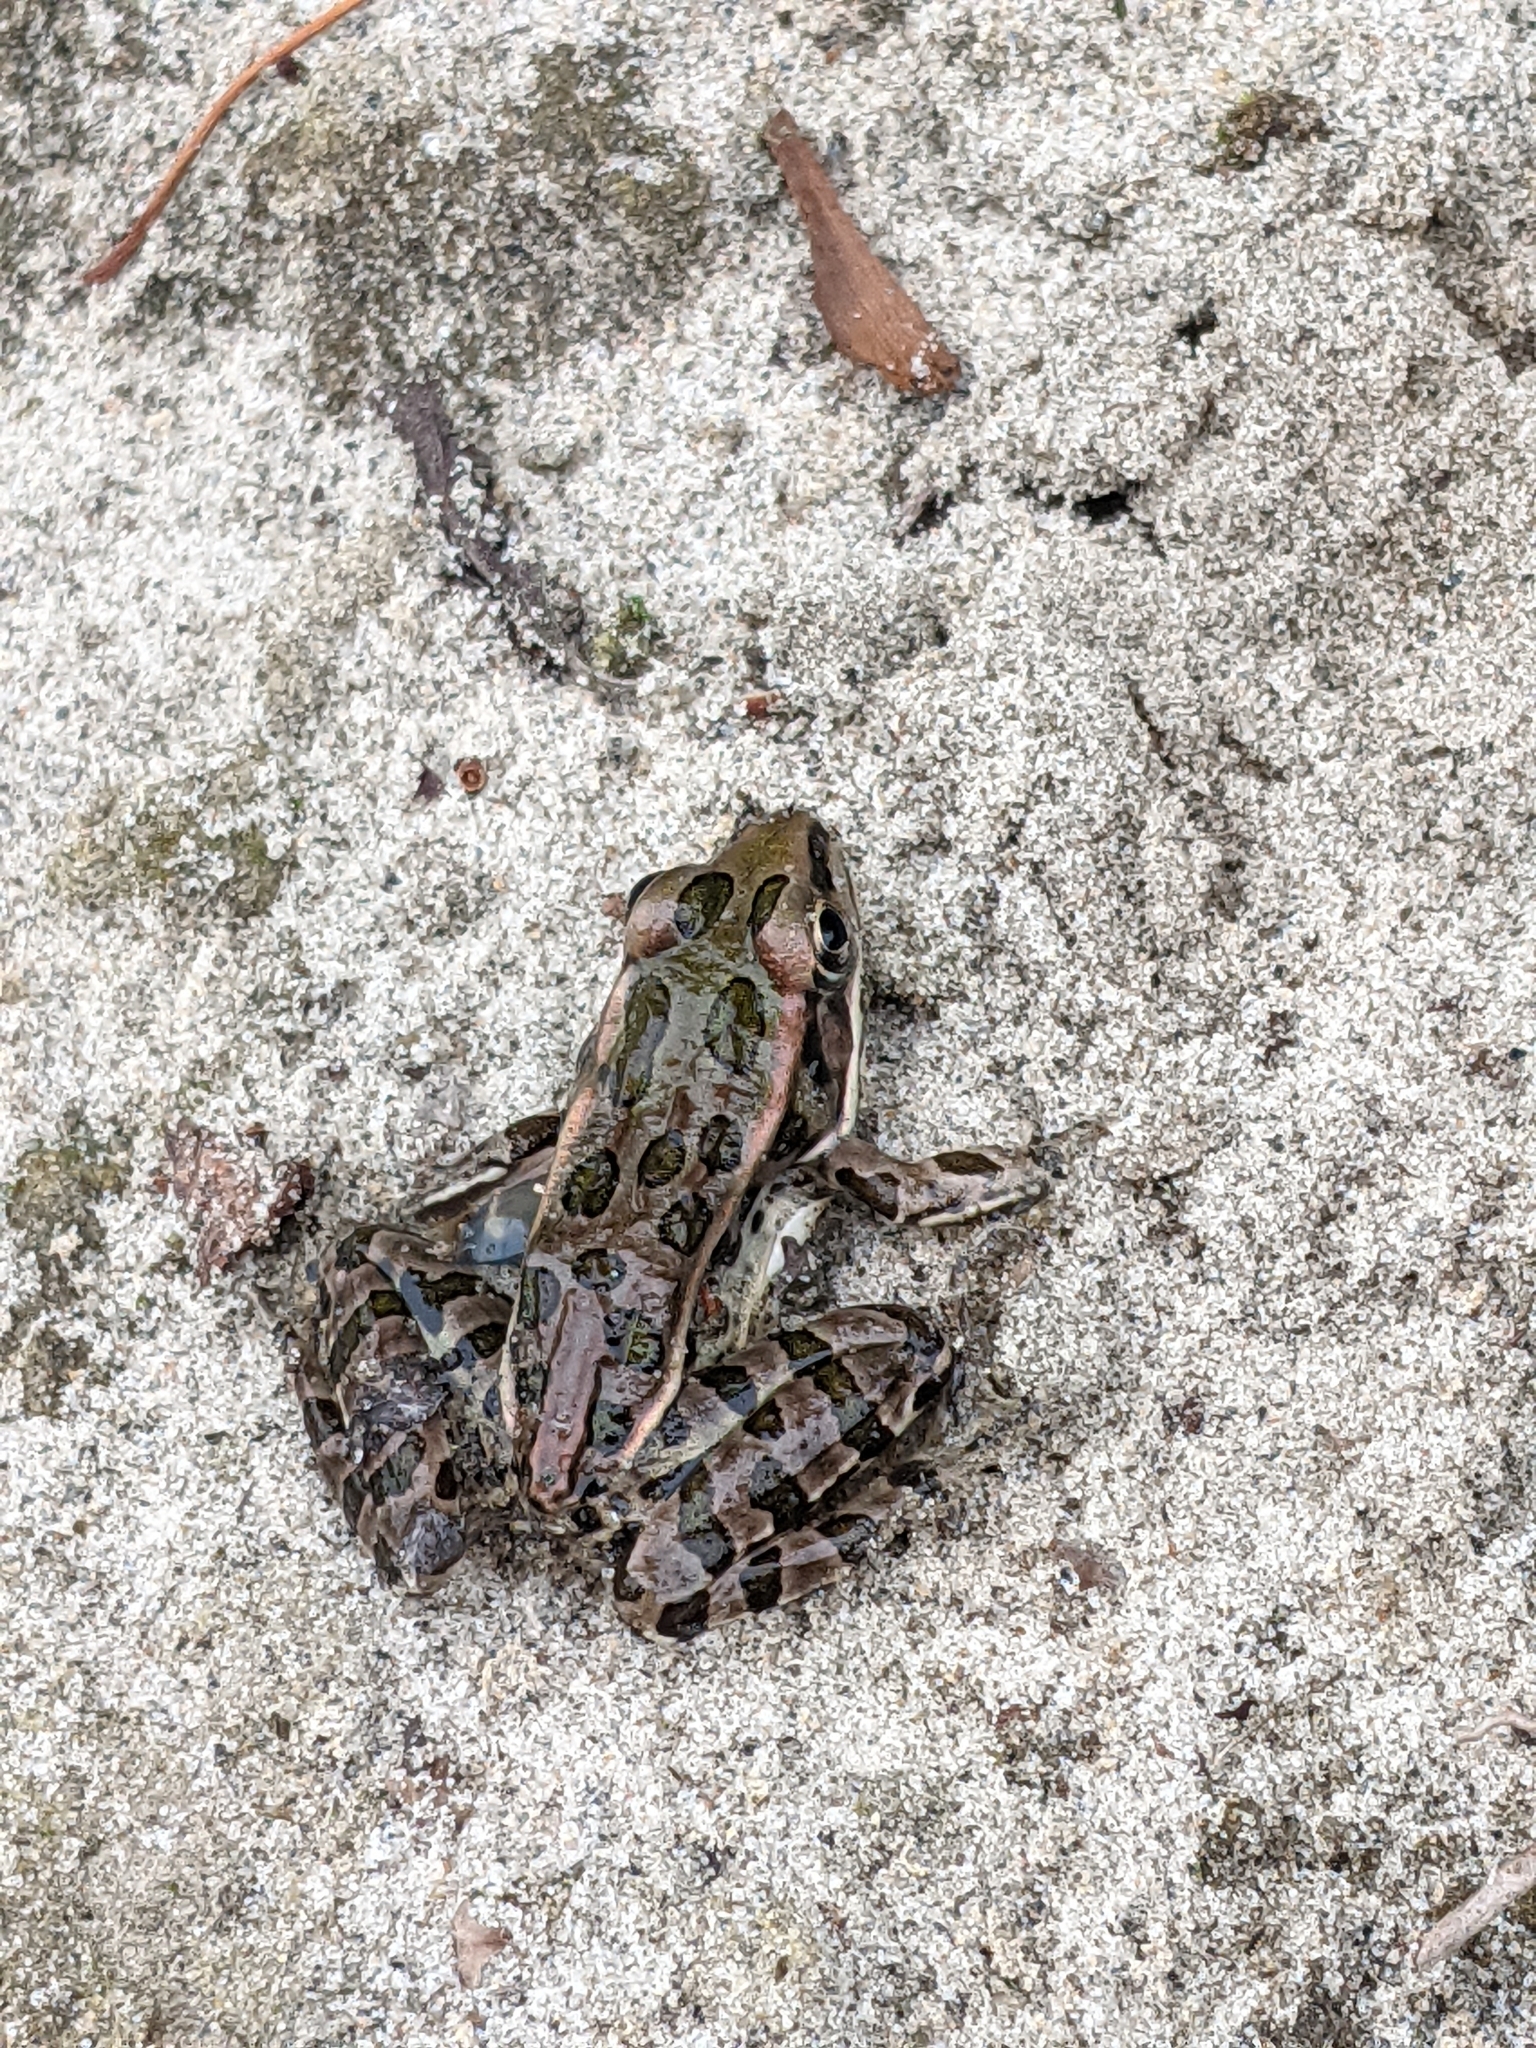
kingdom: Animalia
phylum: Chordata
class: Amphibia
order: Anura
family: Ranidae
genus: Lithobates
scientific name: Lithobates pipiens
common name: Northern leopard frog
